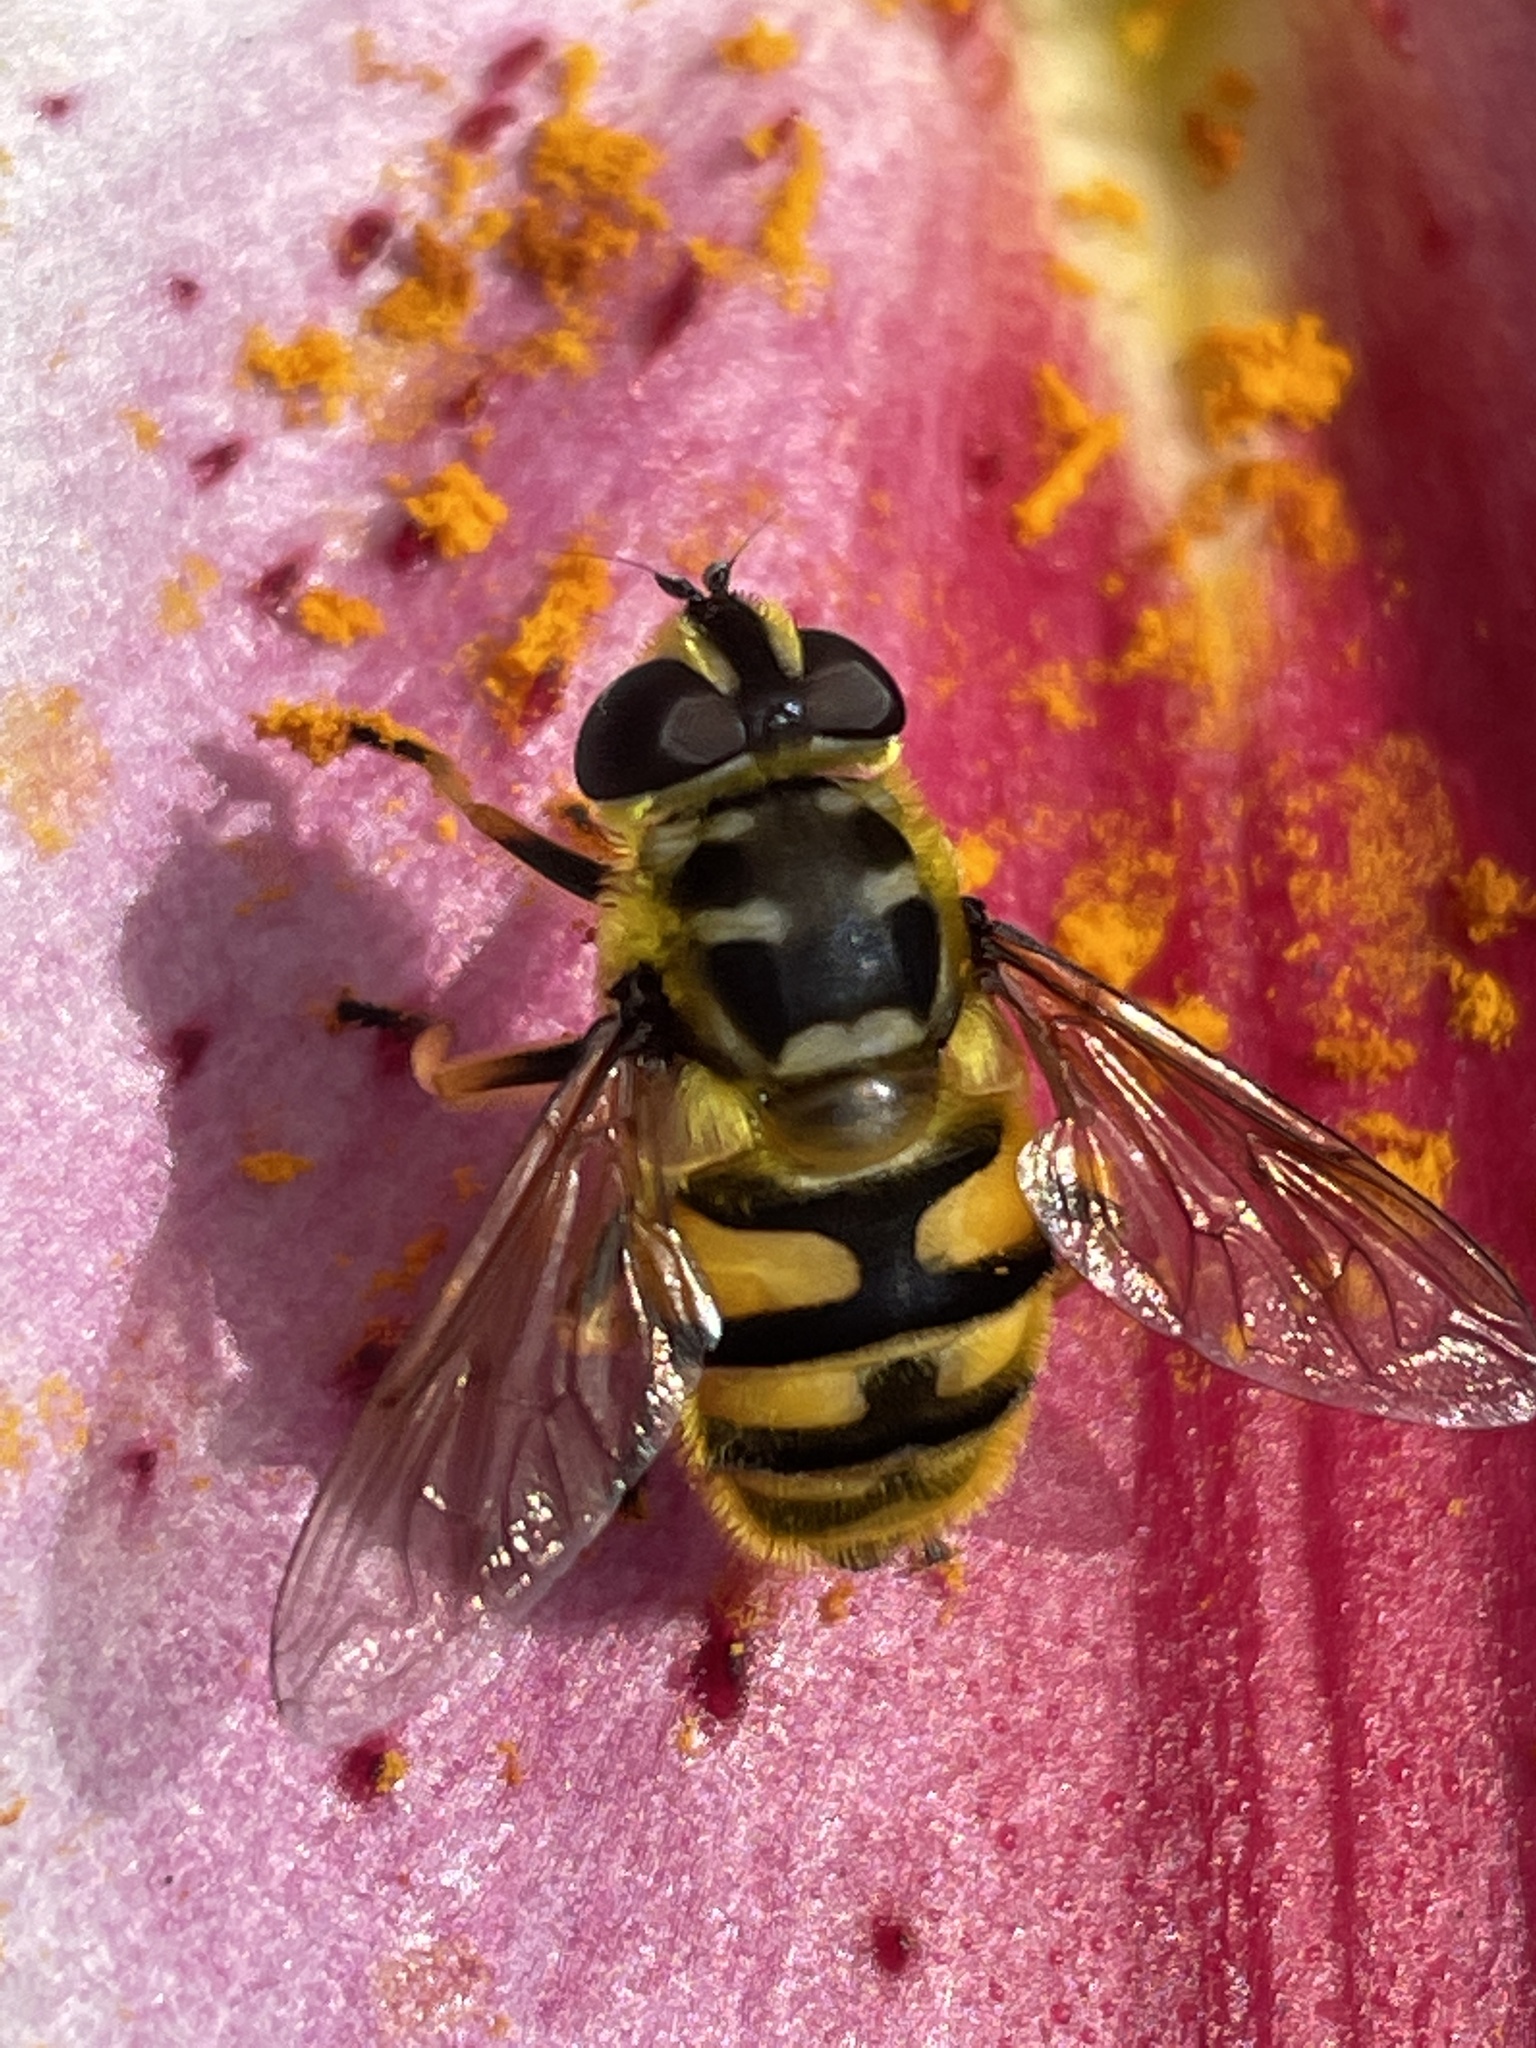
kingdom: Animalia
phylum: Arthropoda
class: Insecta
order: Diptera
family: Syrphidae
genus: Myathropa
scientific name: Myathropa florea
